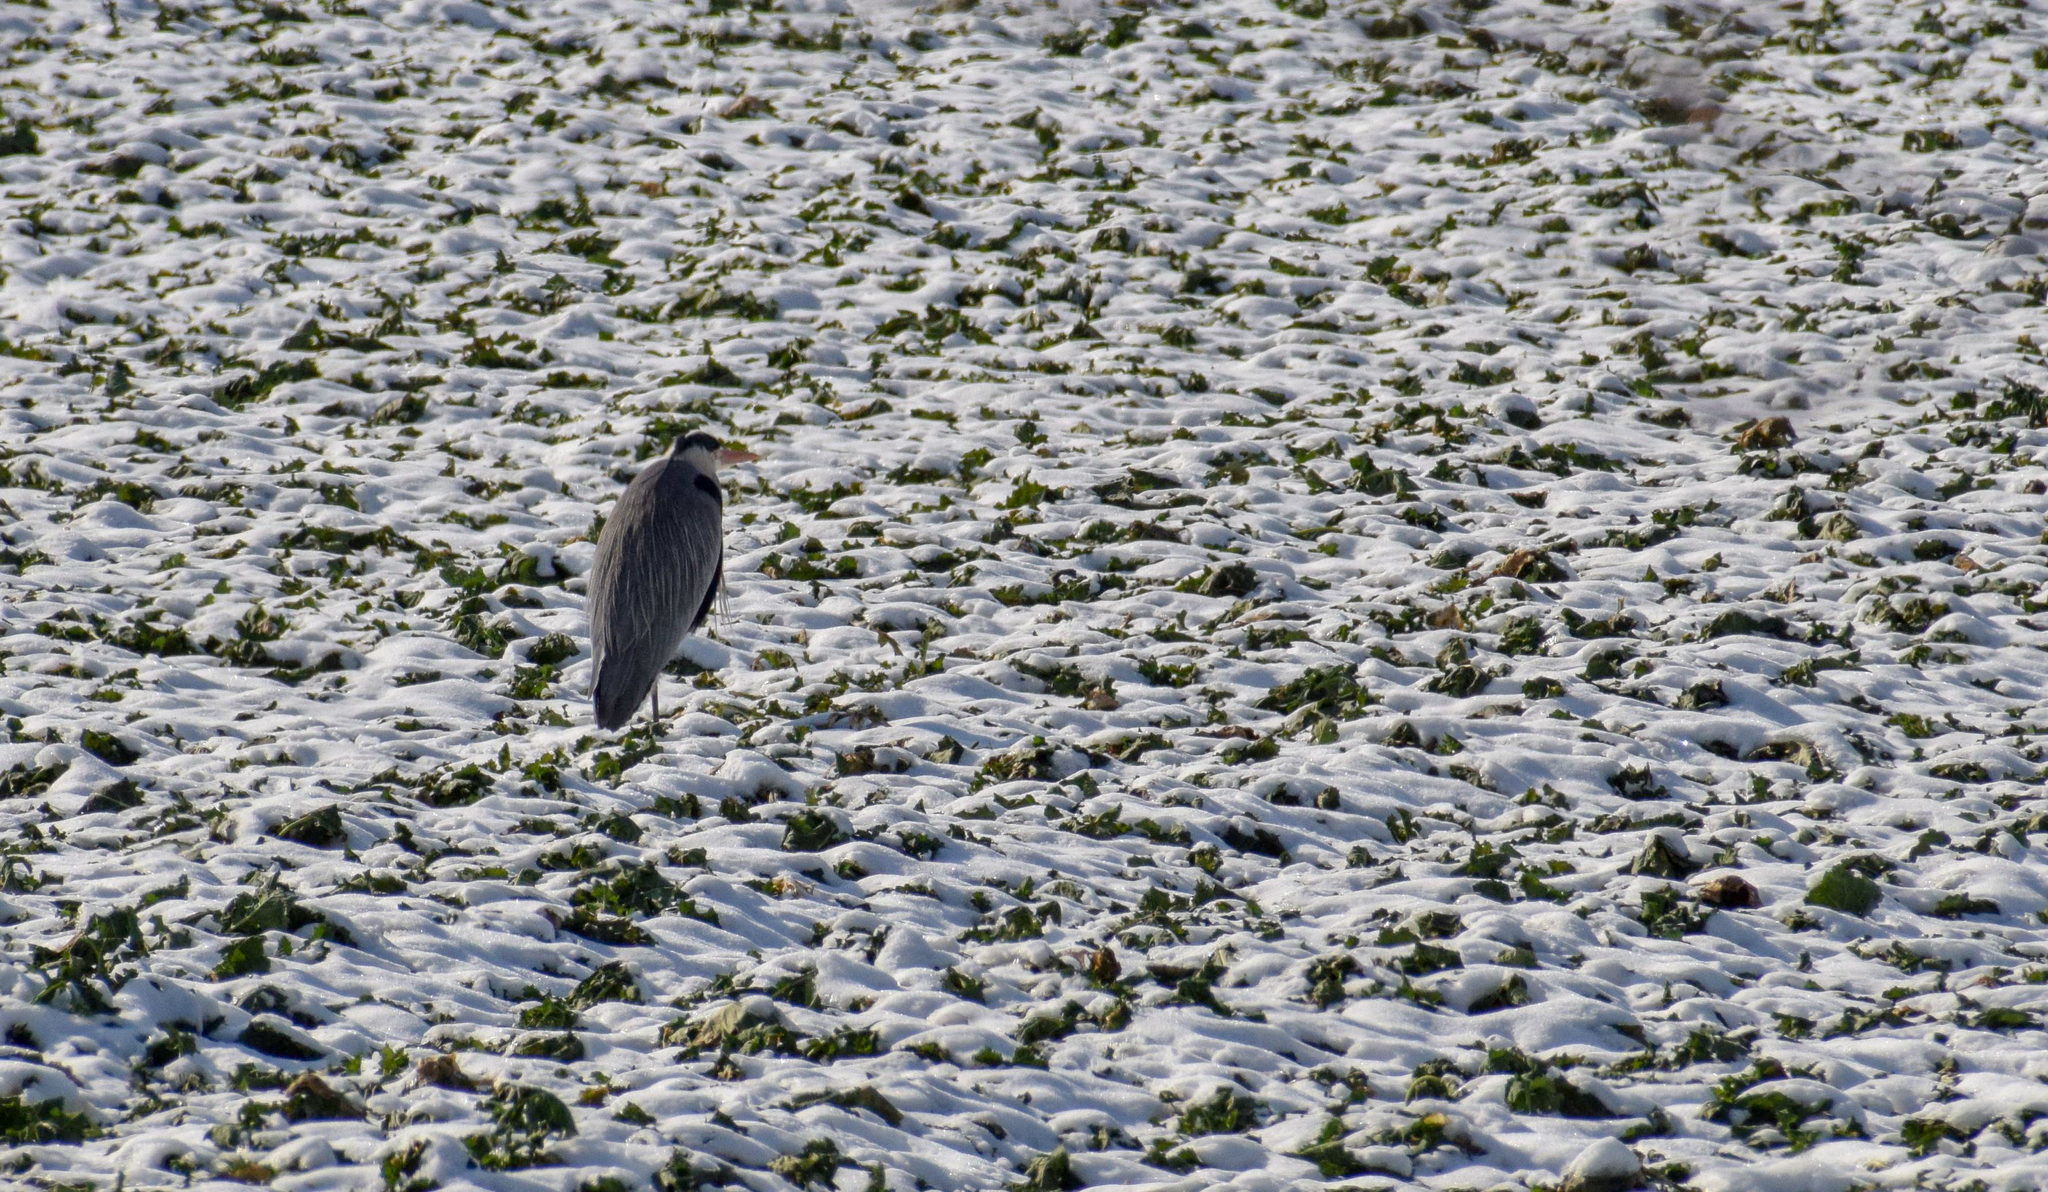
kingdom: Animalia
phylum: Chordata
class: Aves
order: Pelecaniformes
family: Ardeidae
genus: Ardea
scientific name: Ardea cinerea
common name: Grey heron
